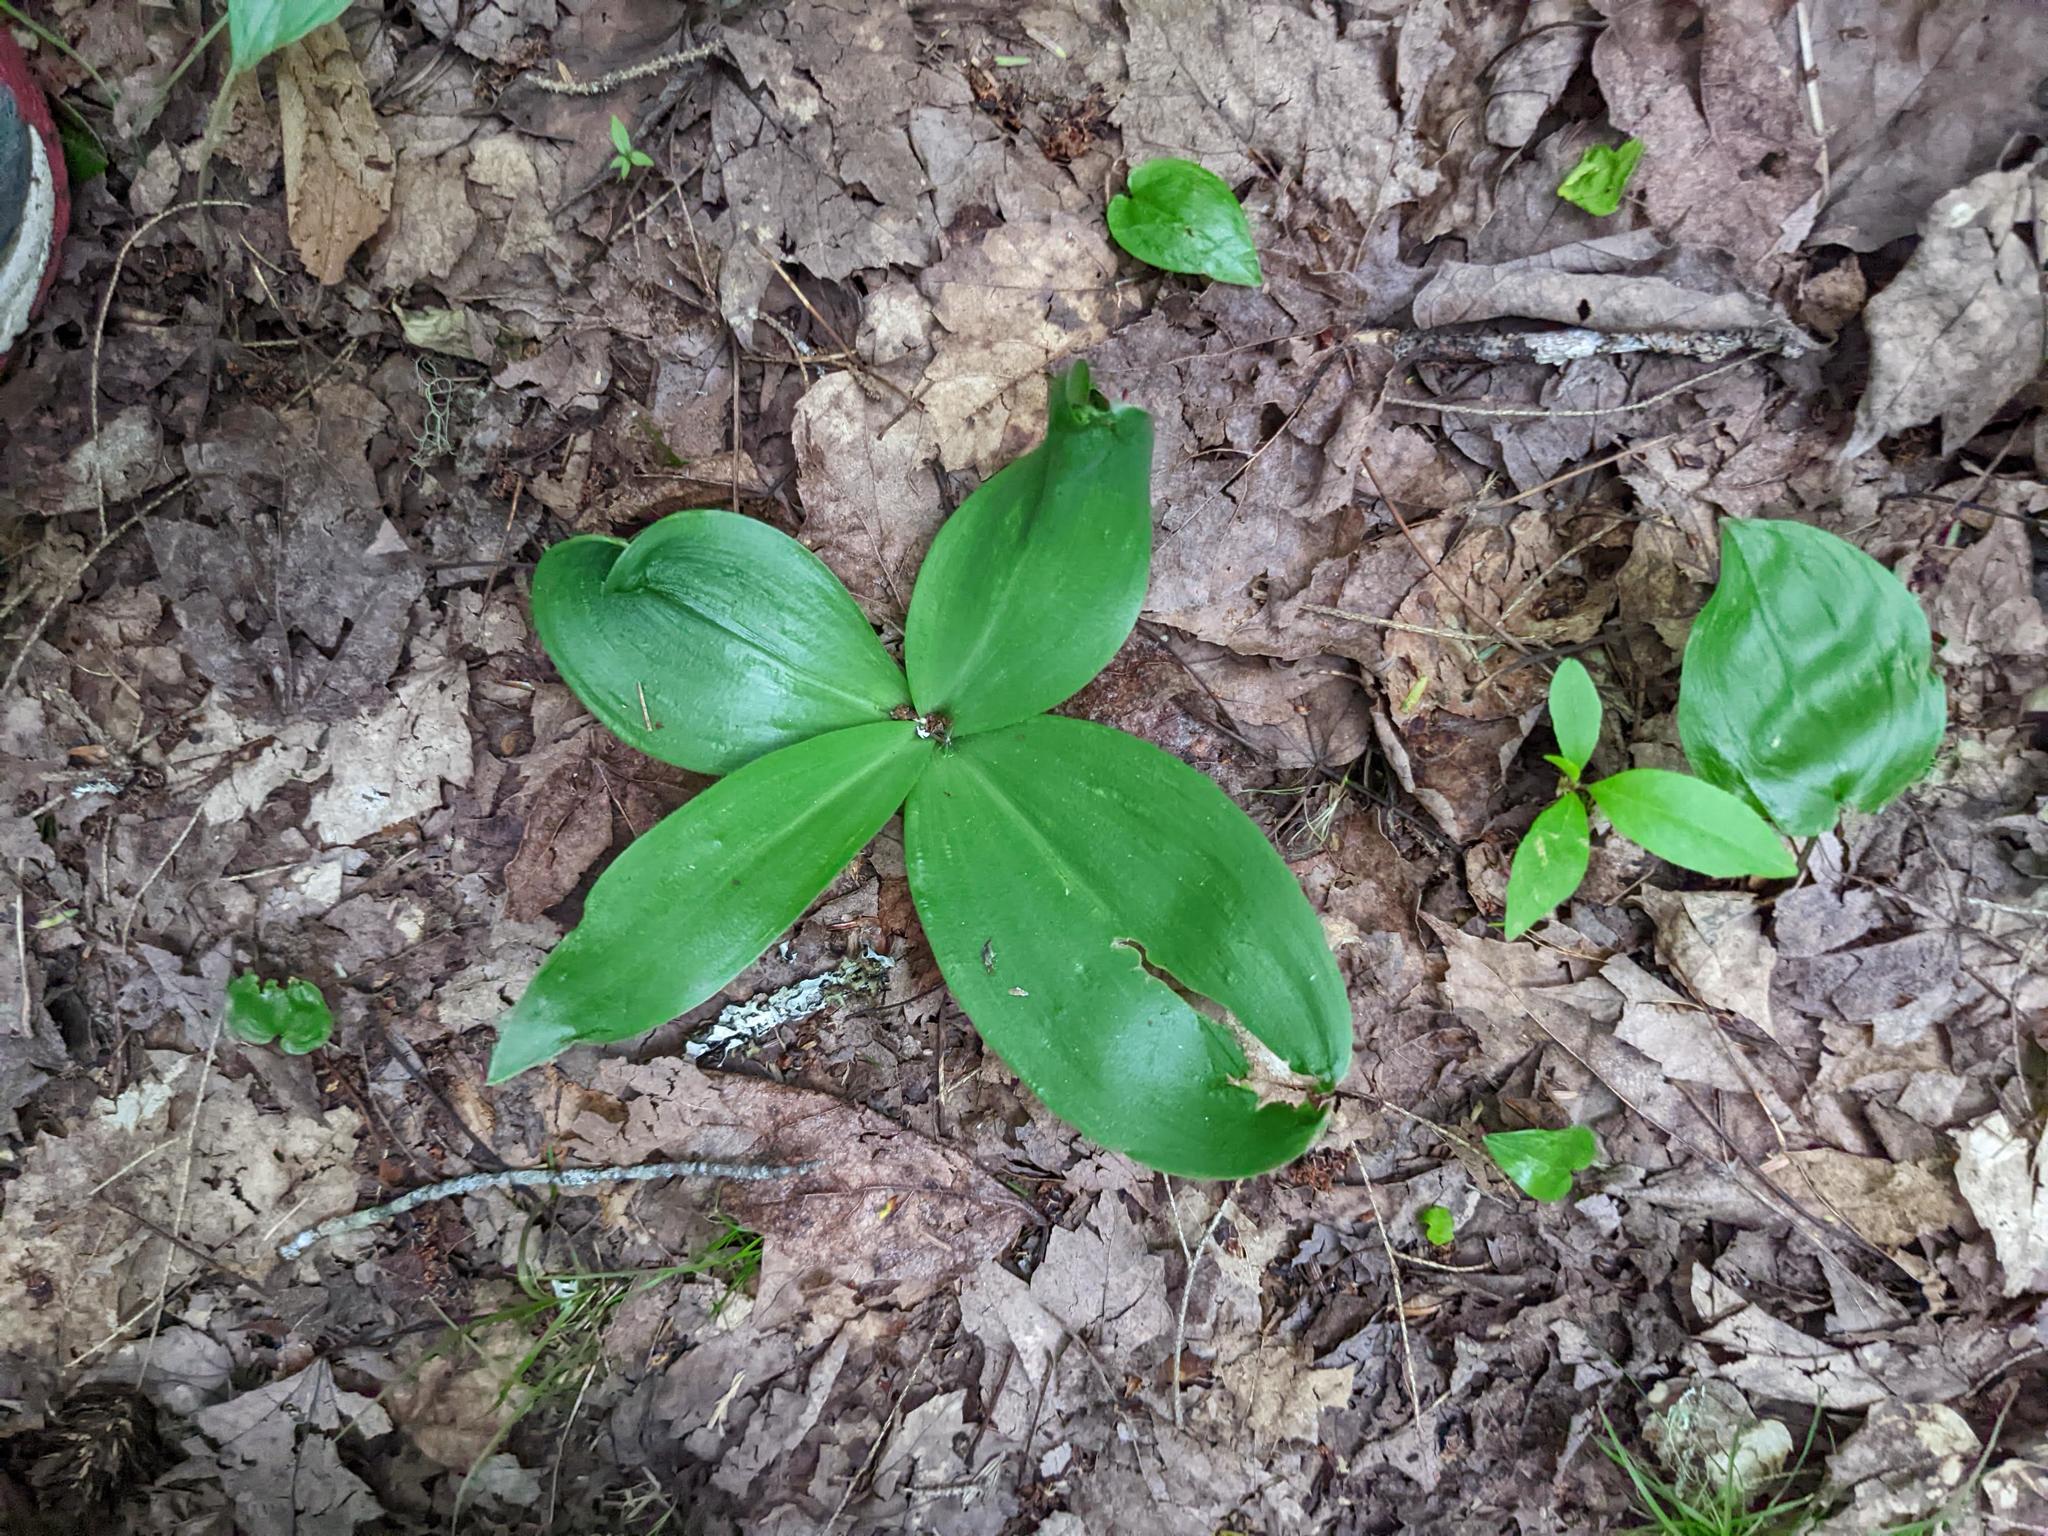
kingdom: Plantae
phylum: Tracheophyta
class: Liliopsida
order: Liliales
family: Liliaceae
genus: Clintonia
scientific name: Clintonia borealis
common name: Yellow clintonia
